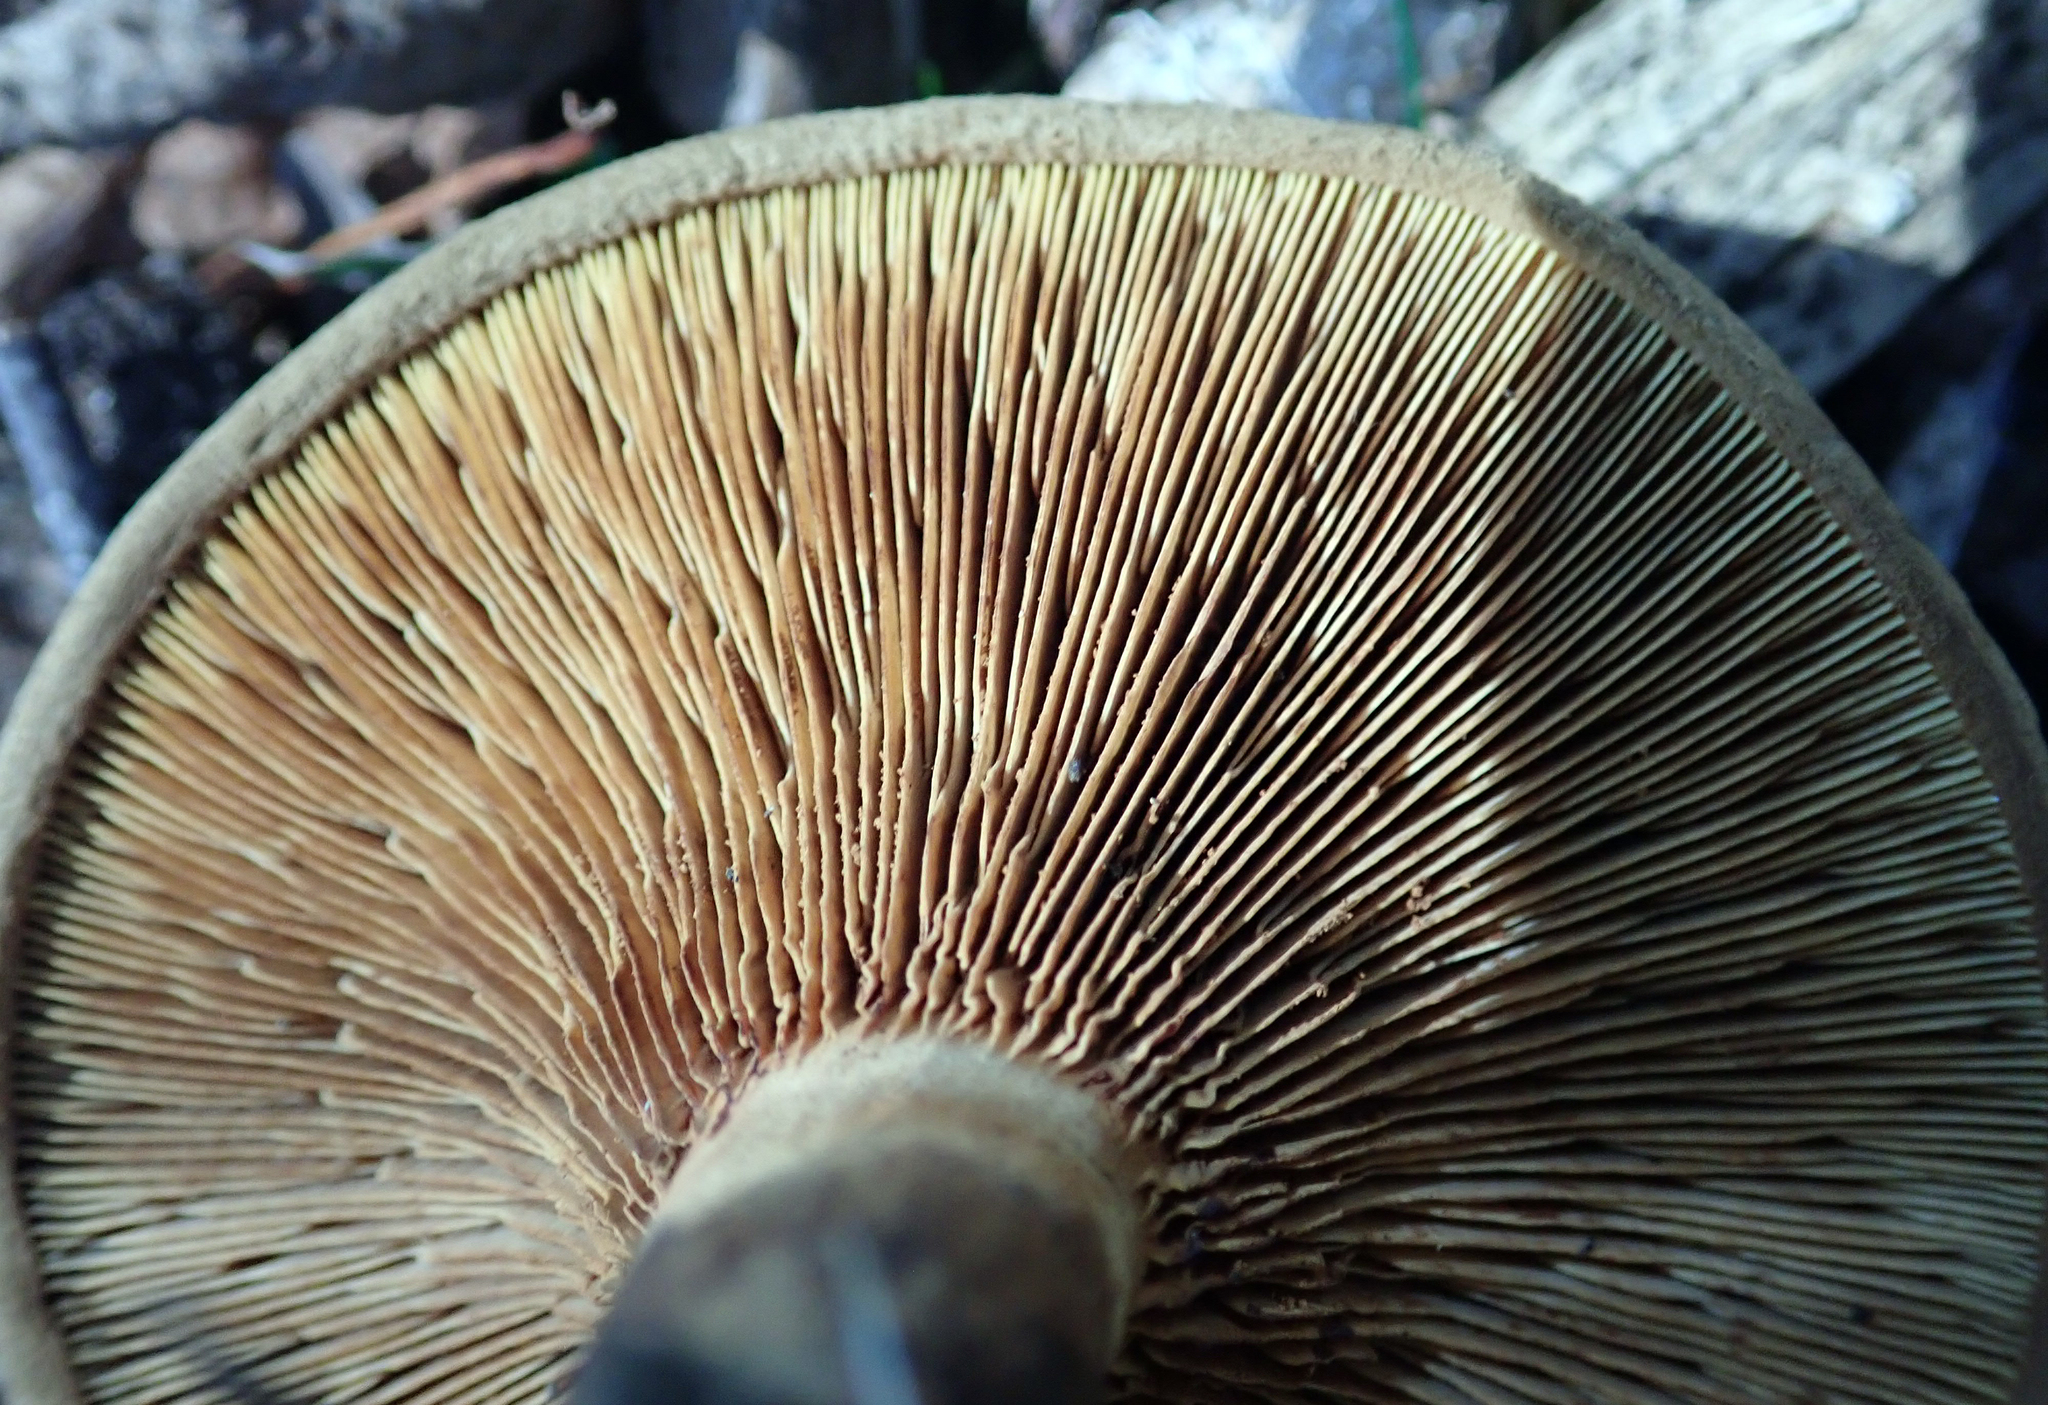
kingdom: Fungi
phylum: Basidiomycota
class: Agaricomycetes
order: Boletales
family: Paxillaceae
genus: Paxillus
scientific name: Paxillus cuprinus
